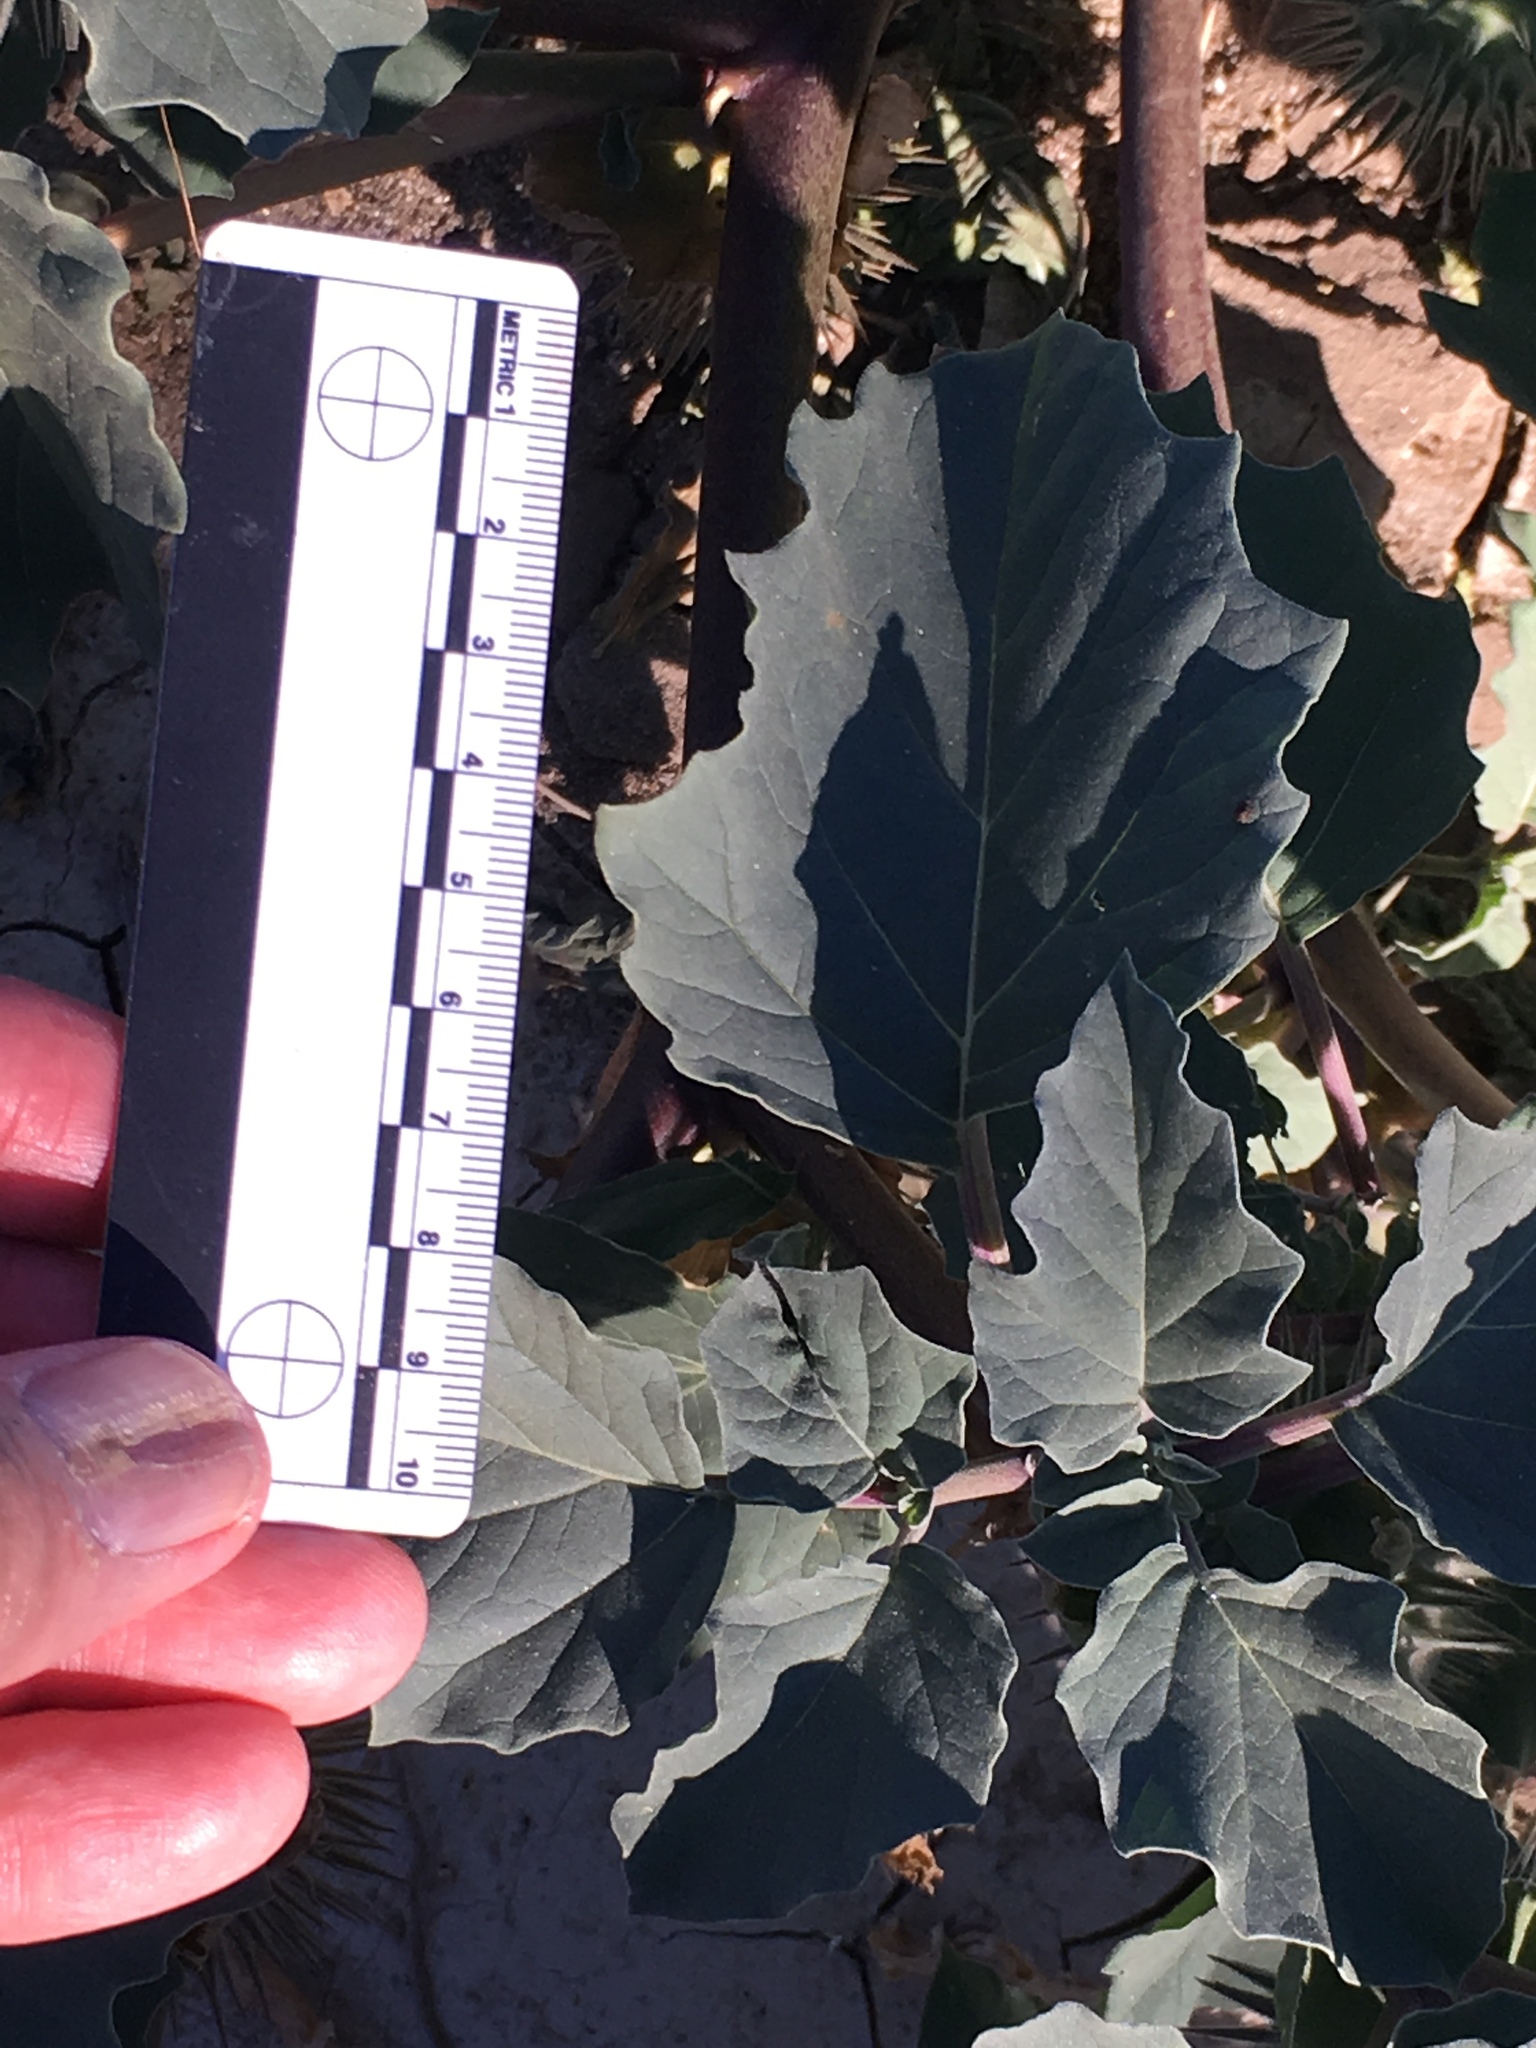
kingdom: Plantae
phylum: Tracheophyta
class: Magnoliopsida
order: Solanales
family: Solanaceae
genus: Datura
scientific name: Datura discolor
